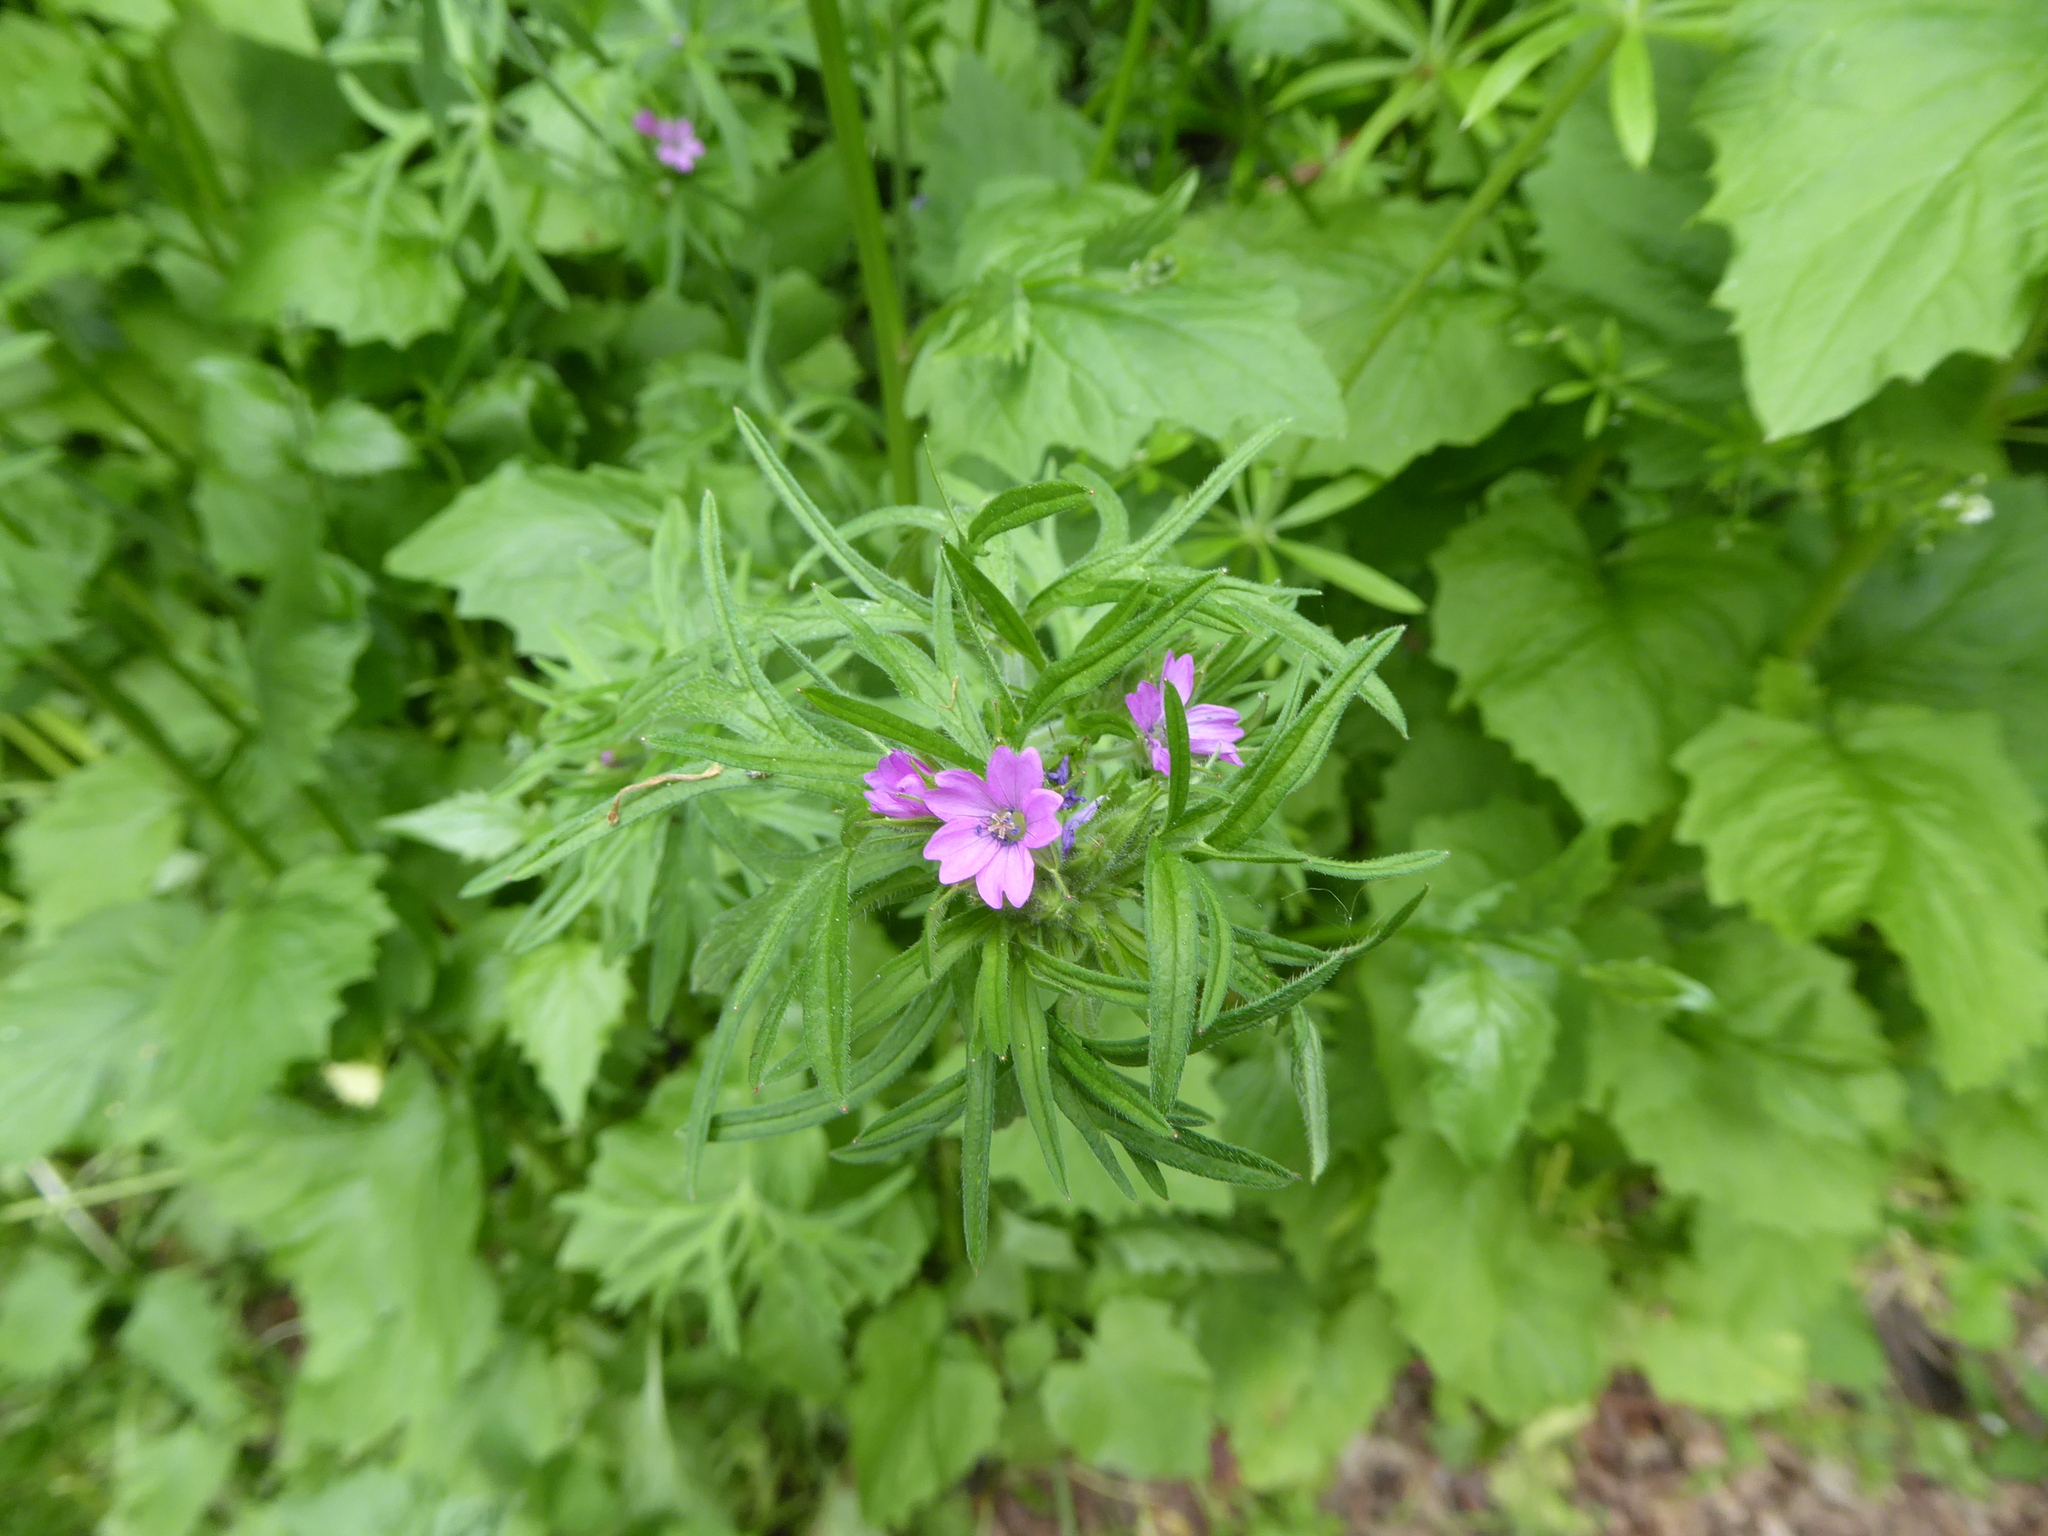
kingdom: Plantae
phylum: Tracheophyta
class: Magnoliopsida
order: Geraniales
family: Geraniaceae
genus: Geranium
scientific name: Geranium dissectum
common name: Cut-leaved crane's-bill
